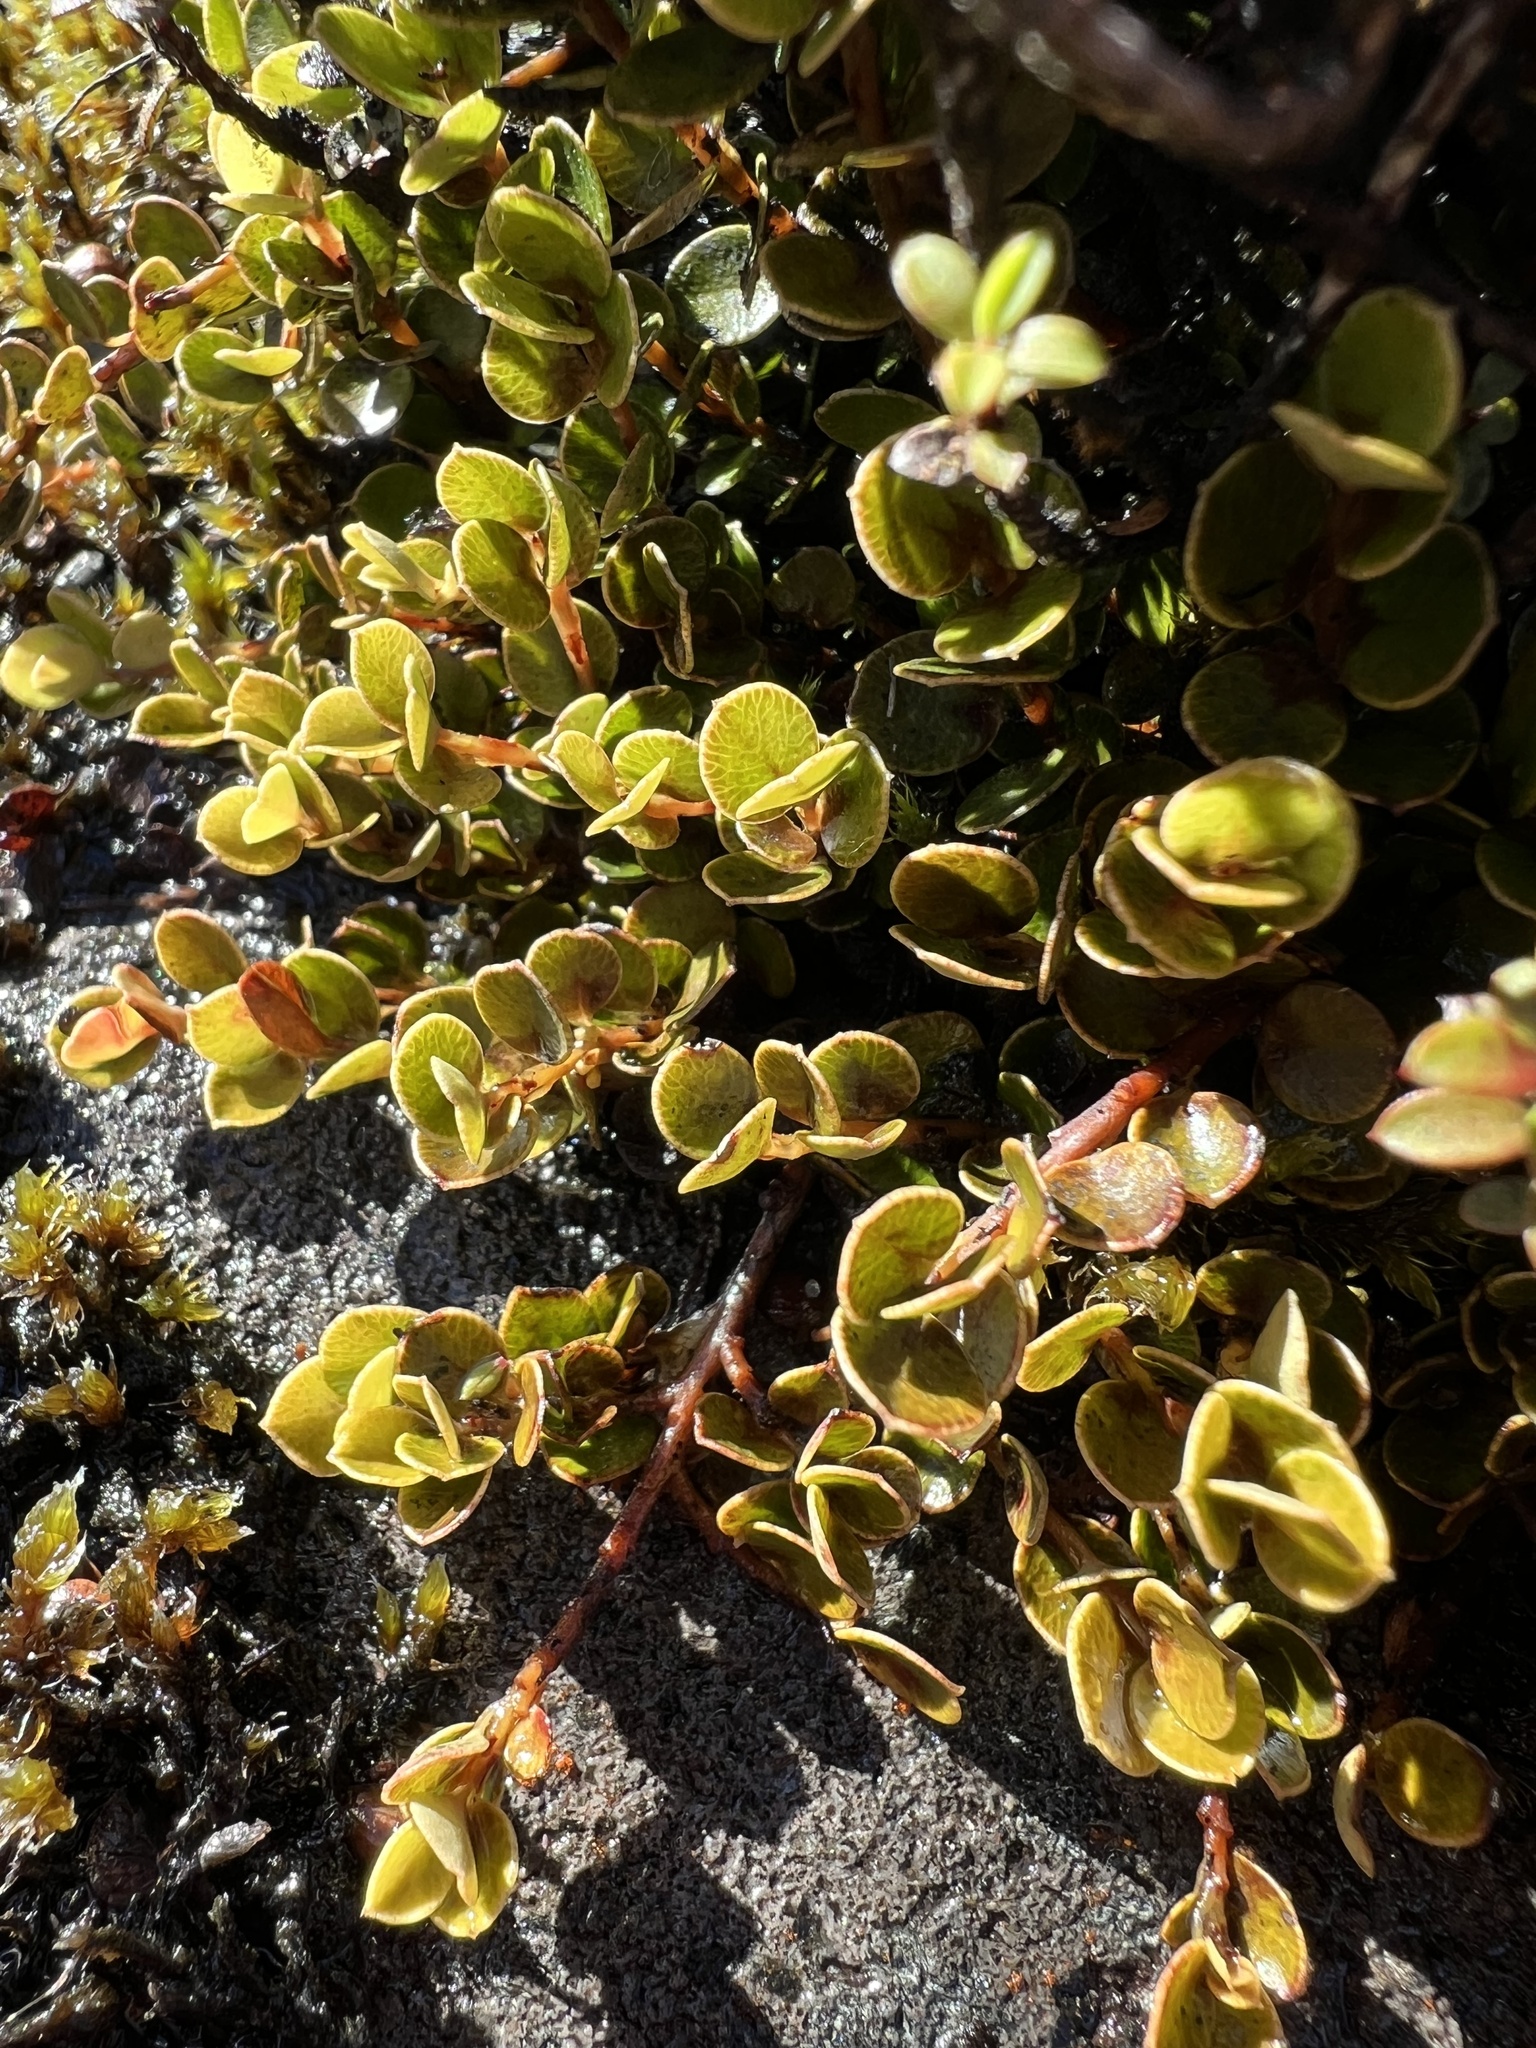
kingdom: Plantae
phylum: Tracheophyta
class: Magnoliopsida
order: Ericales
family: Primulaceae
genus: Myrsine
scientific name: Myrsine nummularia
